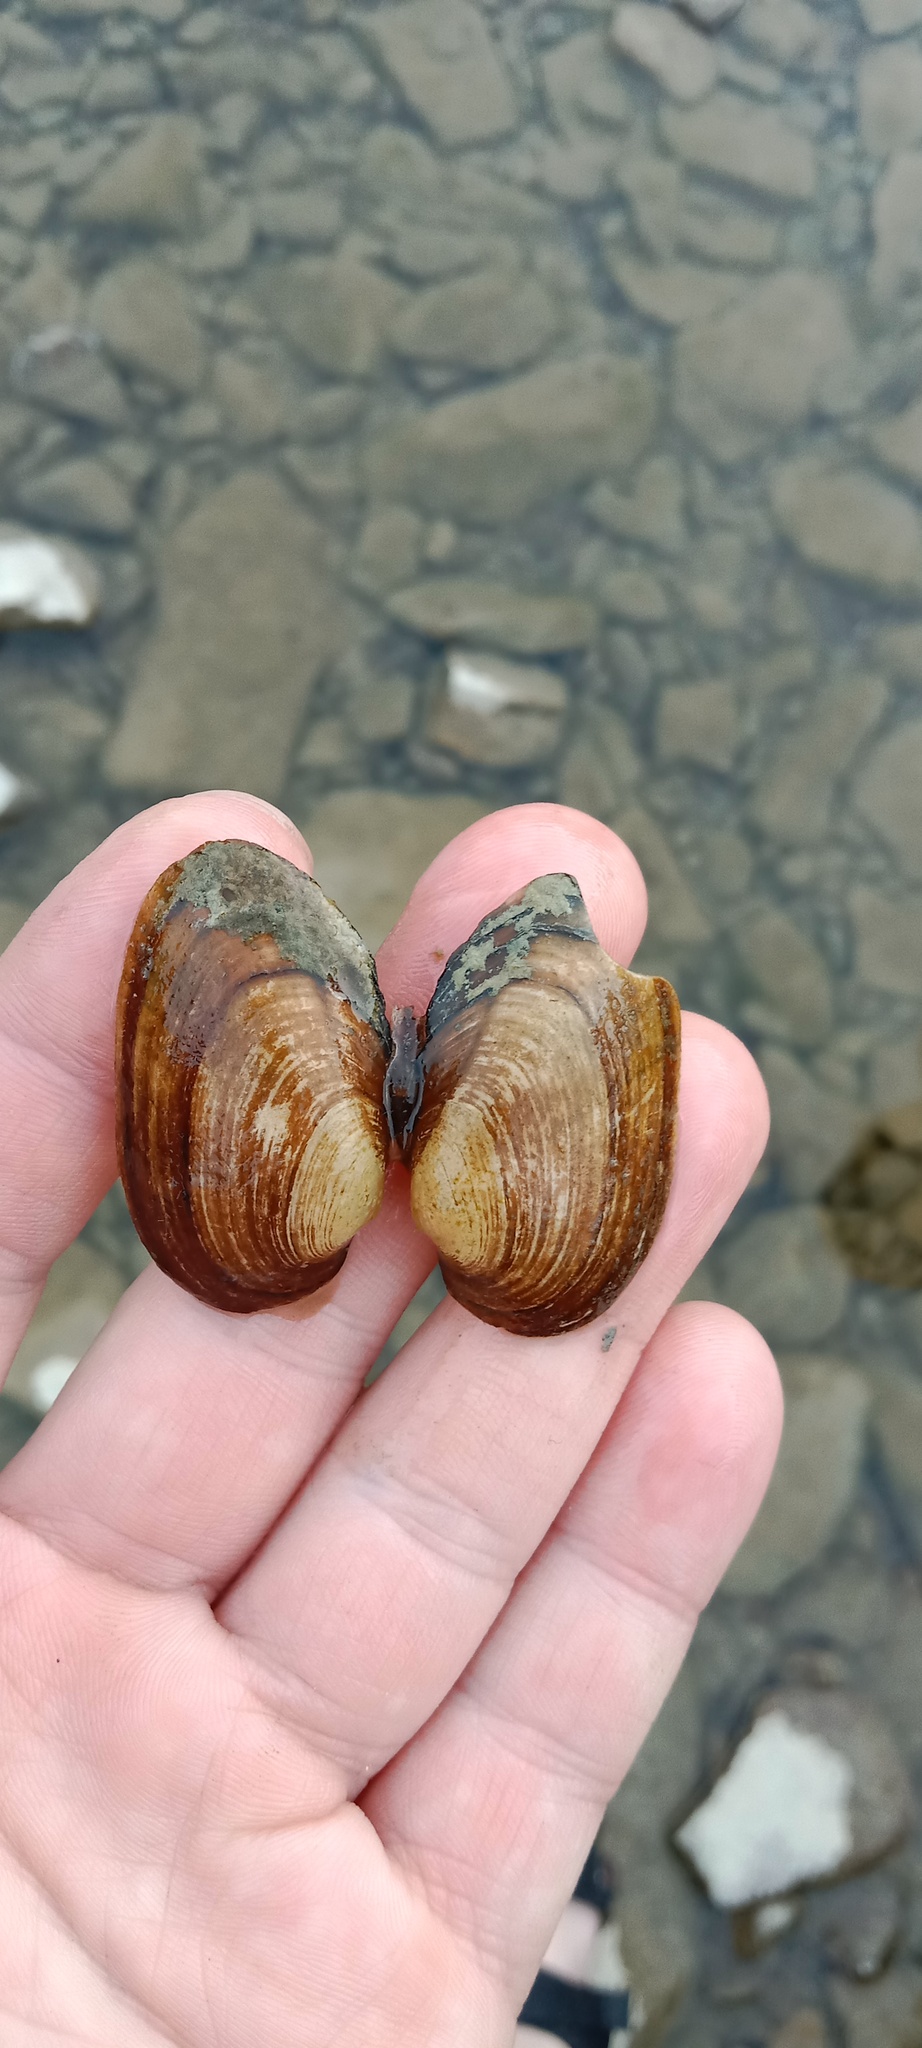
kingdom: Animalia
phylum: Mollusca
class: Bivalvia
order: Unionida
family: Unionidae
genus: Unio
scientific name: Unio crassus
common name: Thick shelled river mussel
